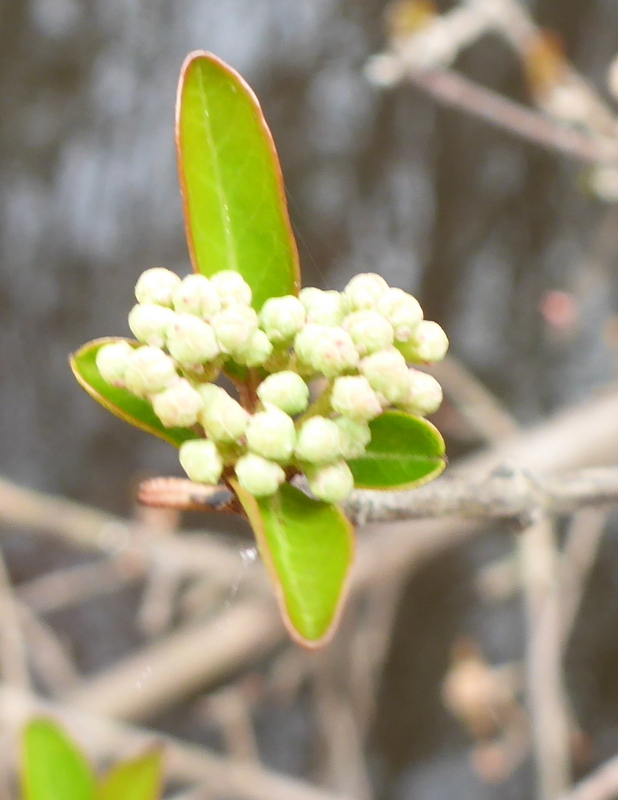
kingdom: Plantae
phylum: Tracheophyta
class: Magnoliopsida
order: Dipsacales
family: Viburnaceae
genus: Viburnum
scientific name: Viburnum obovatum
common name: Walter's viburnum
